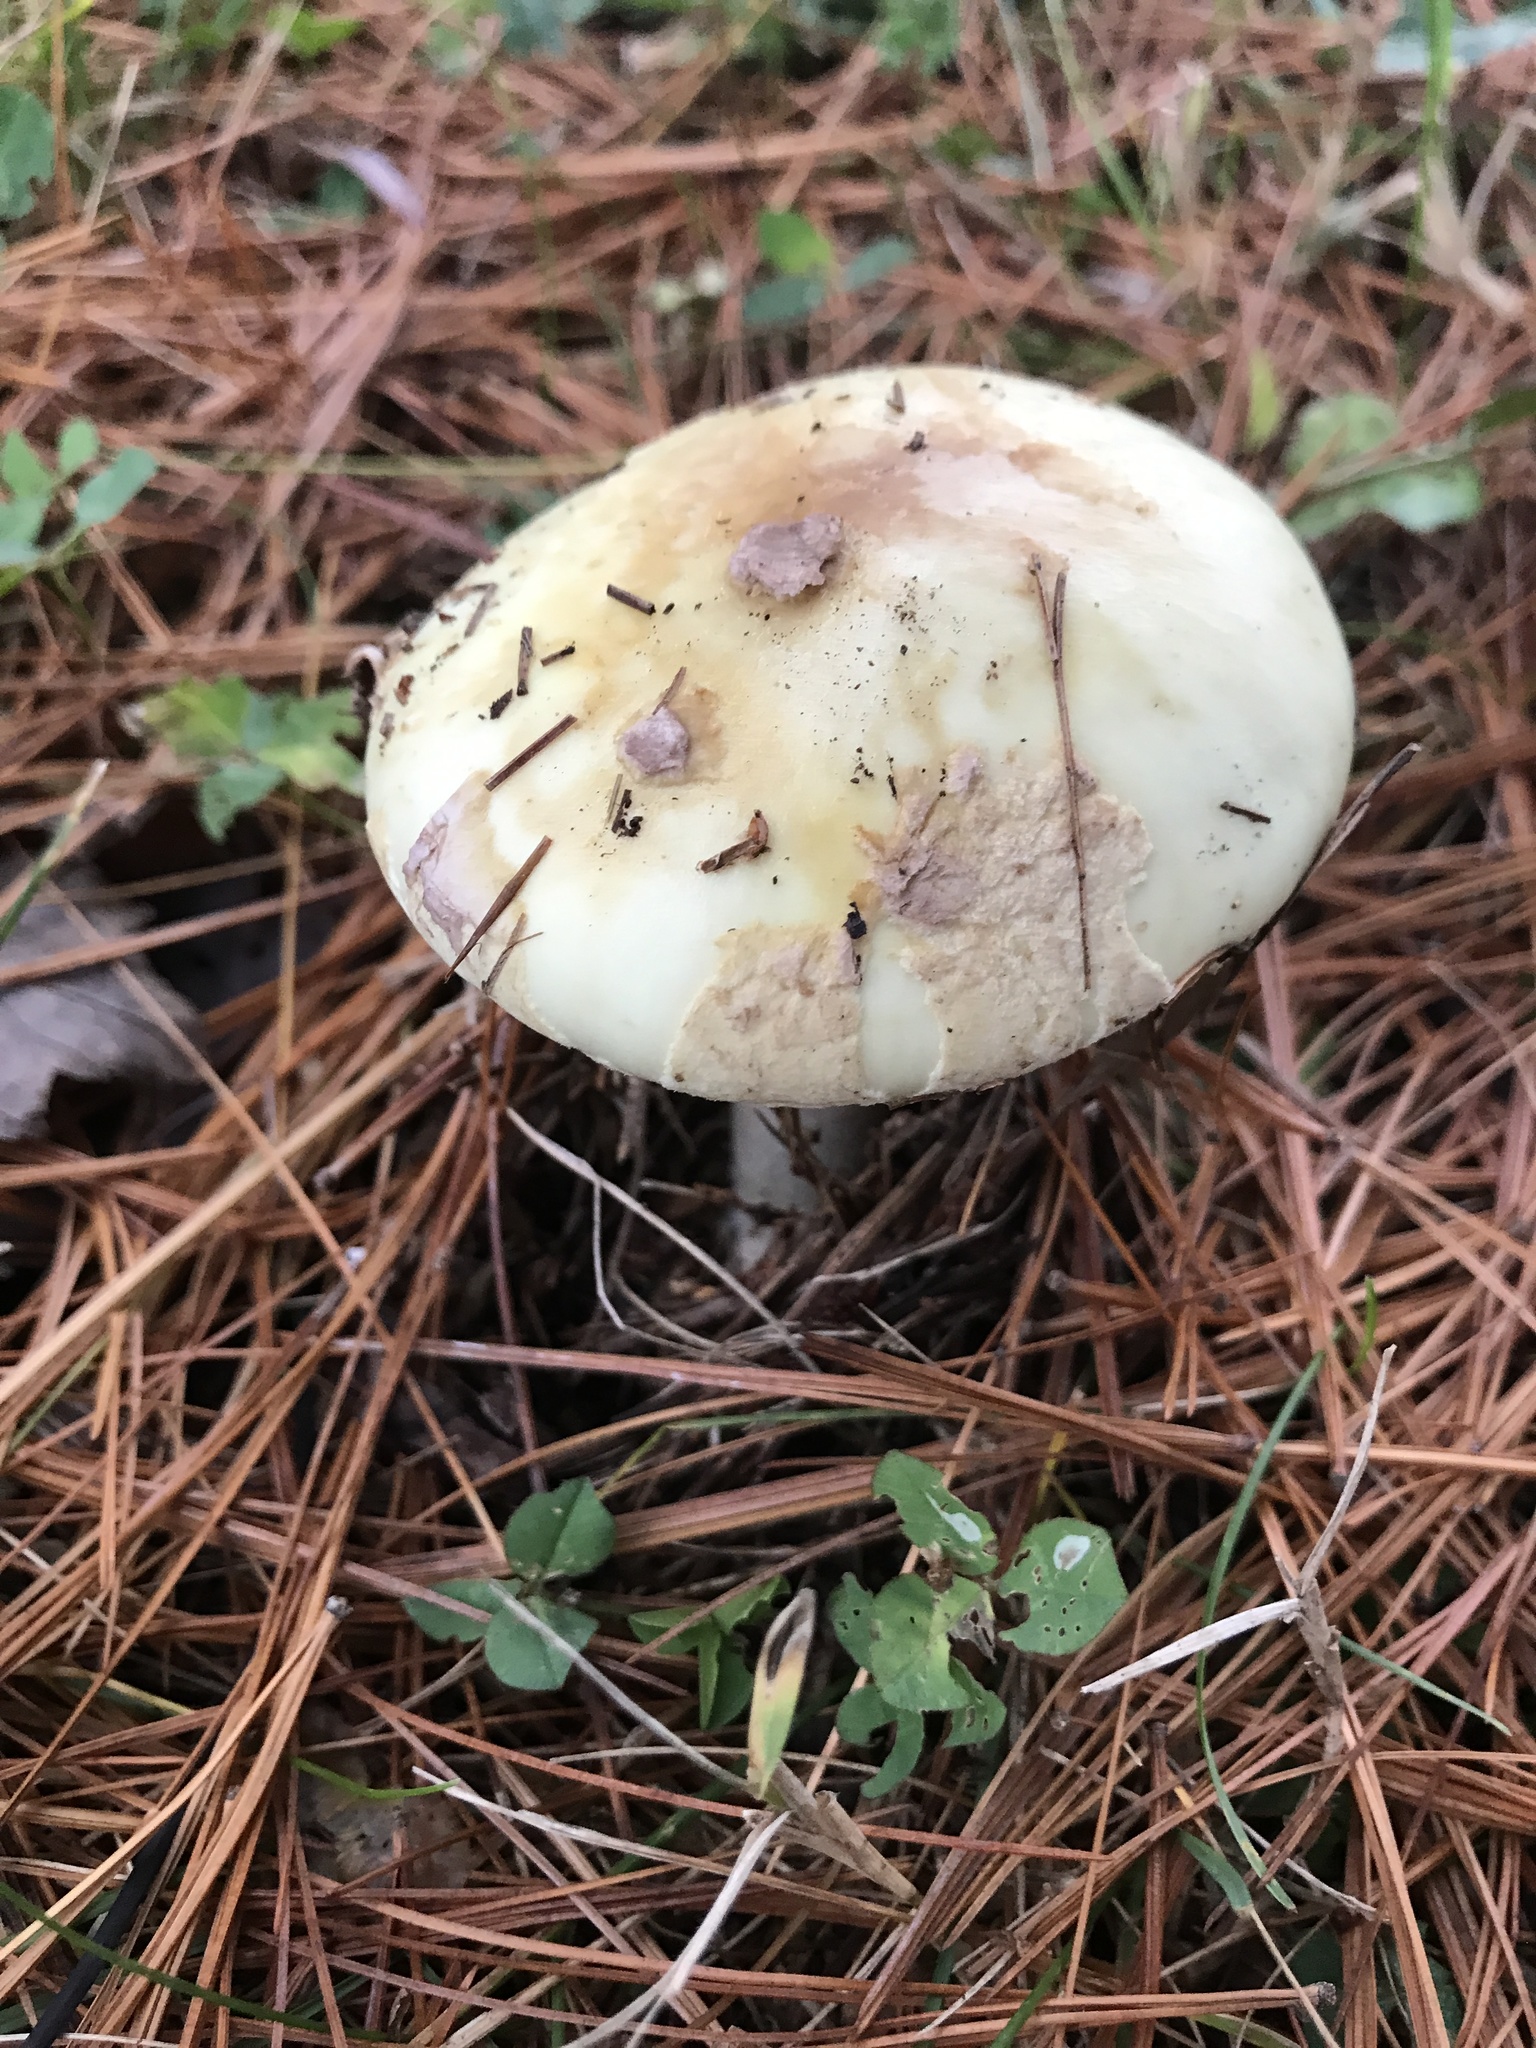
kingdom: Fungi
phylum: Basidiomycota
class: Agaricomycetes
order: Agaricales
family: Amanitaceae
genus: Amanita
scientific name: Amanita lavendula
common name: Coker's lavender staining amanita
